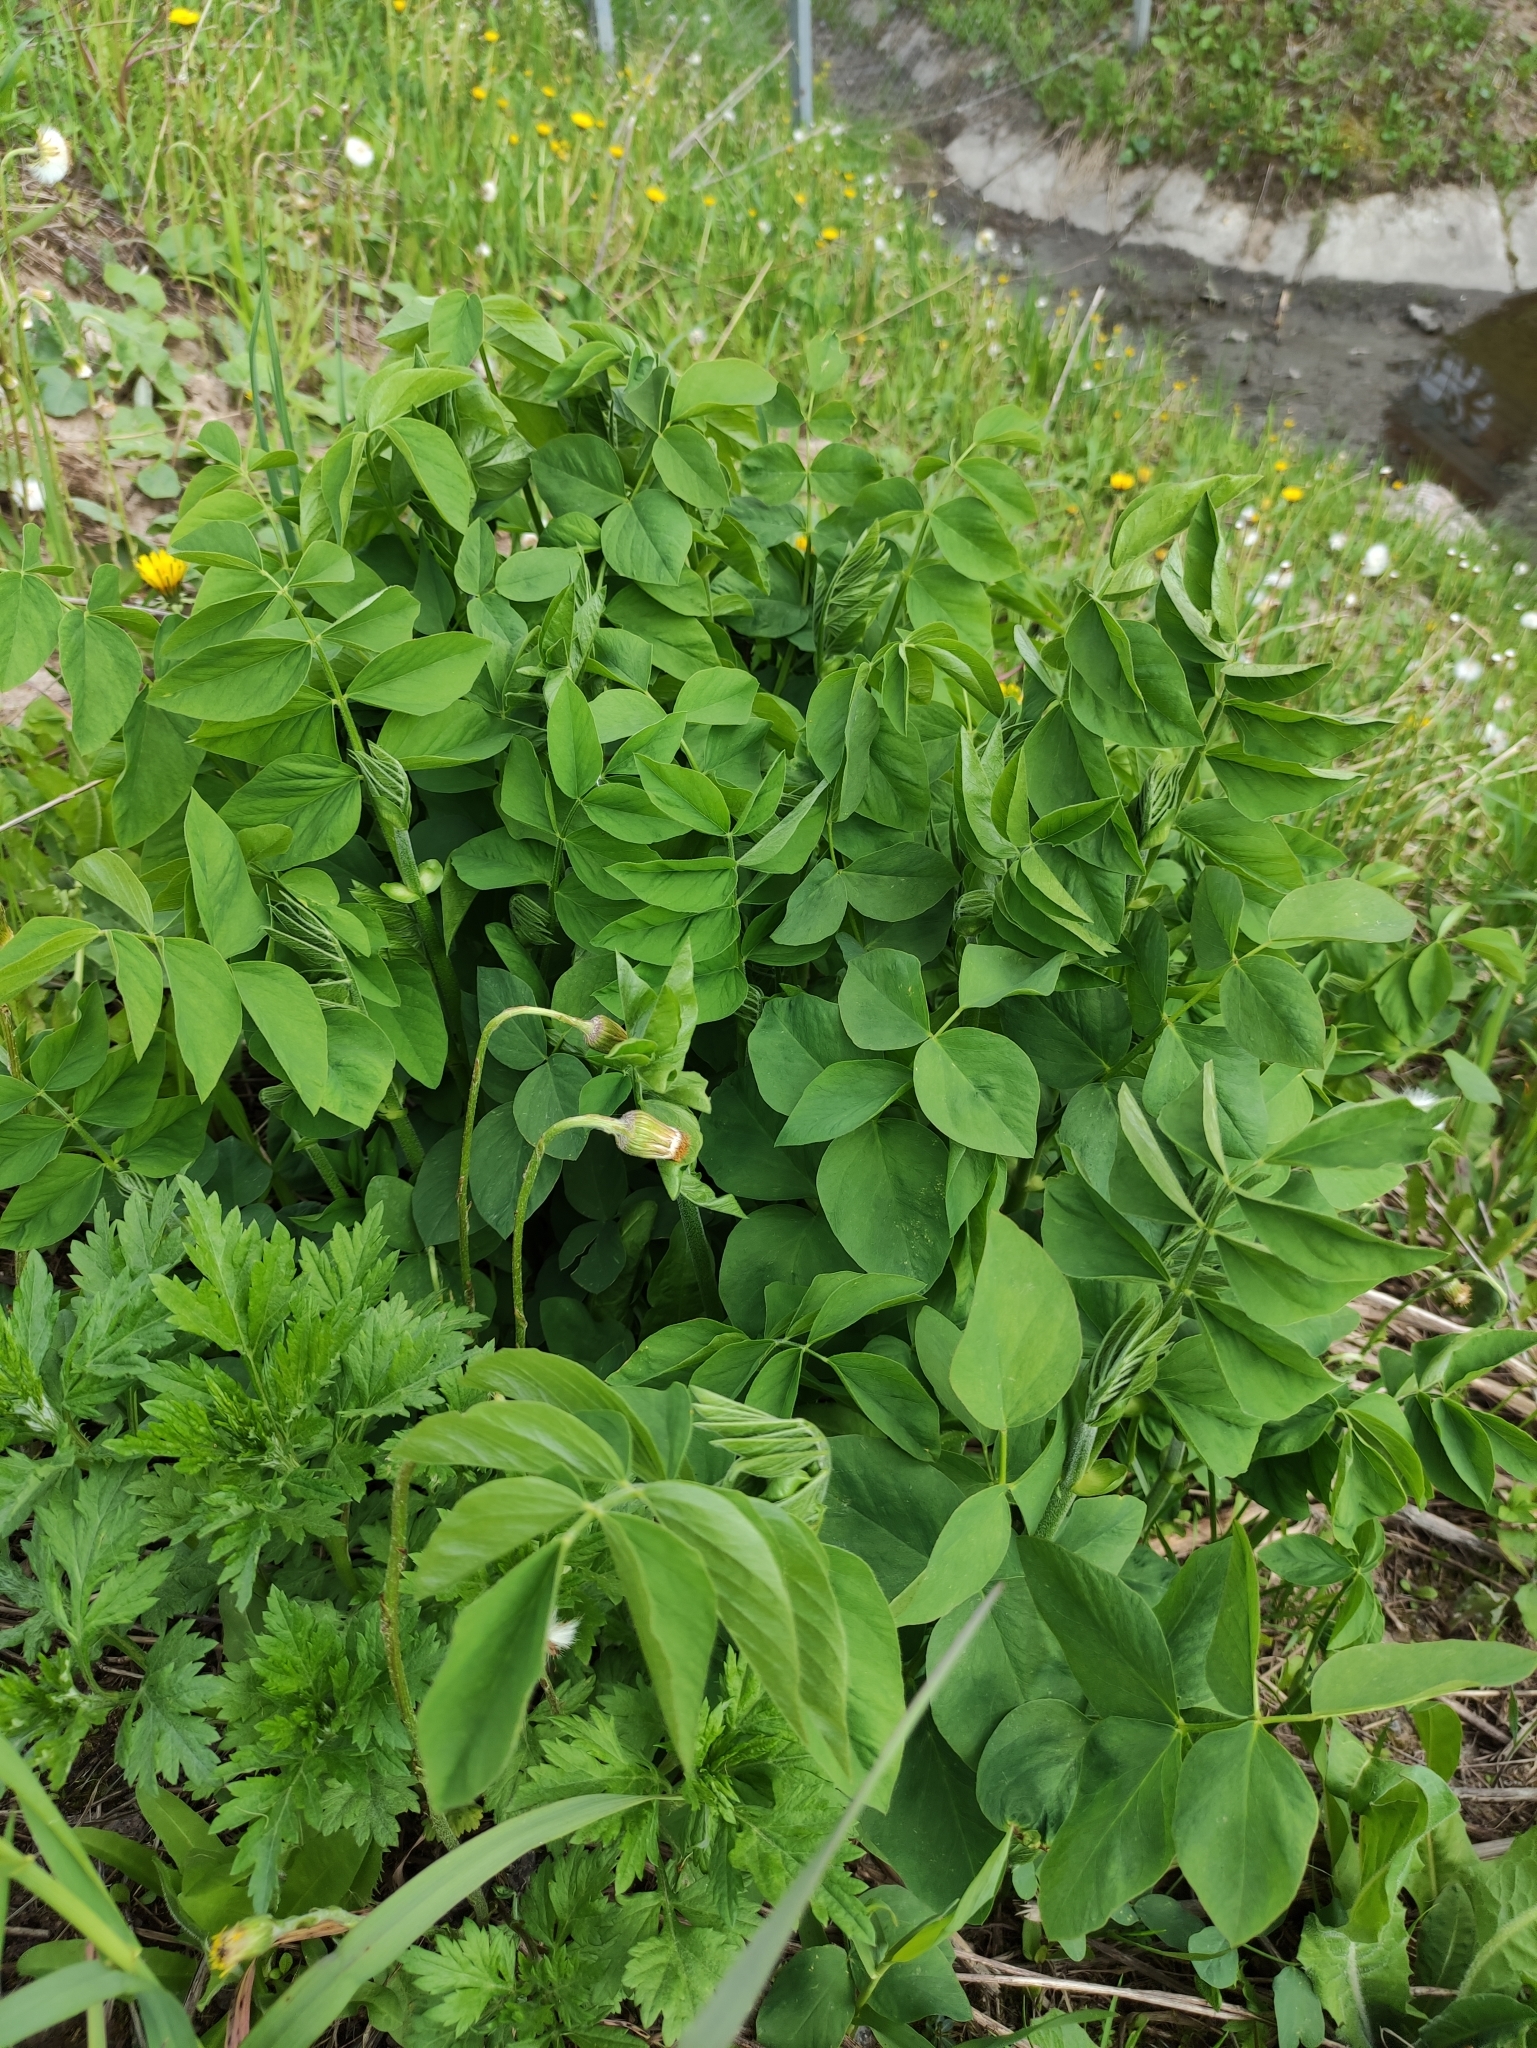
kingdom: Plantae
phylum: Tracheophyta
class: Magnoliopsida
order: Fabales
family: Fabaceae
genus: Galega
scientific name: Galega orientalis
